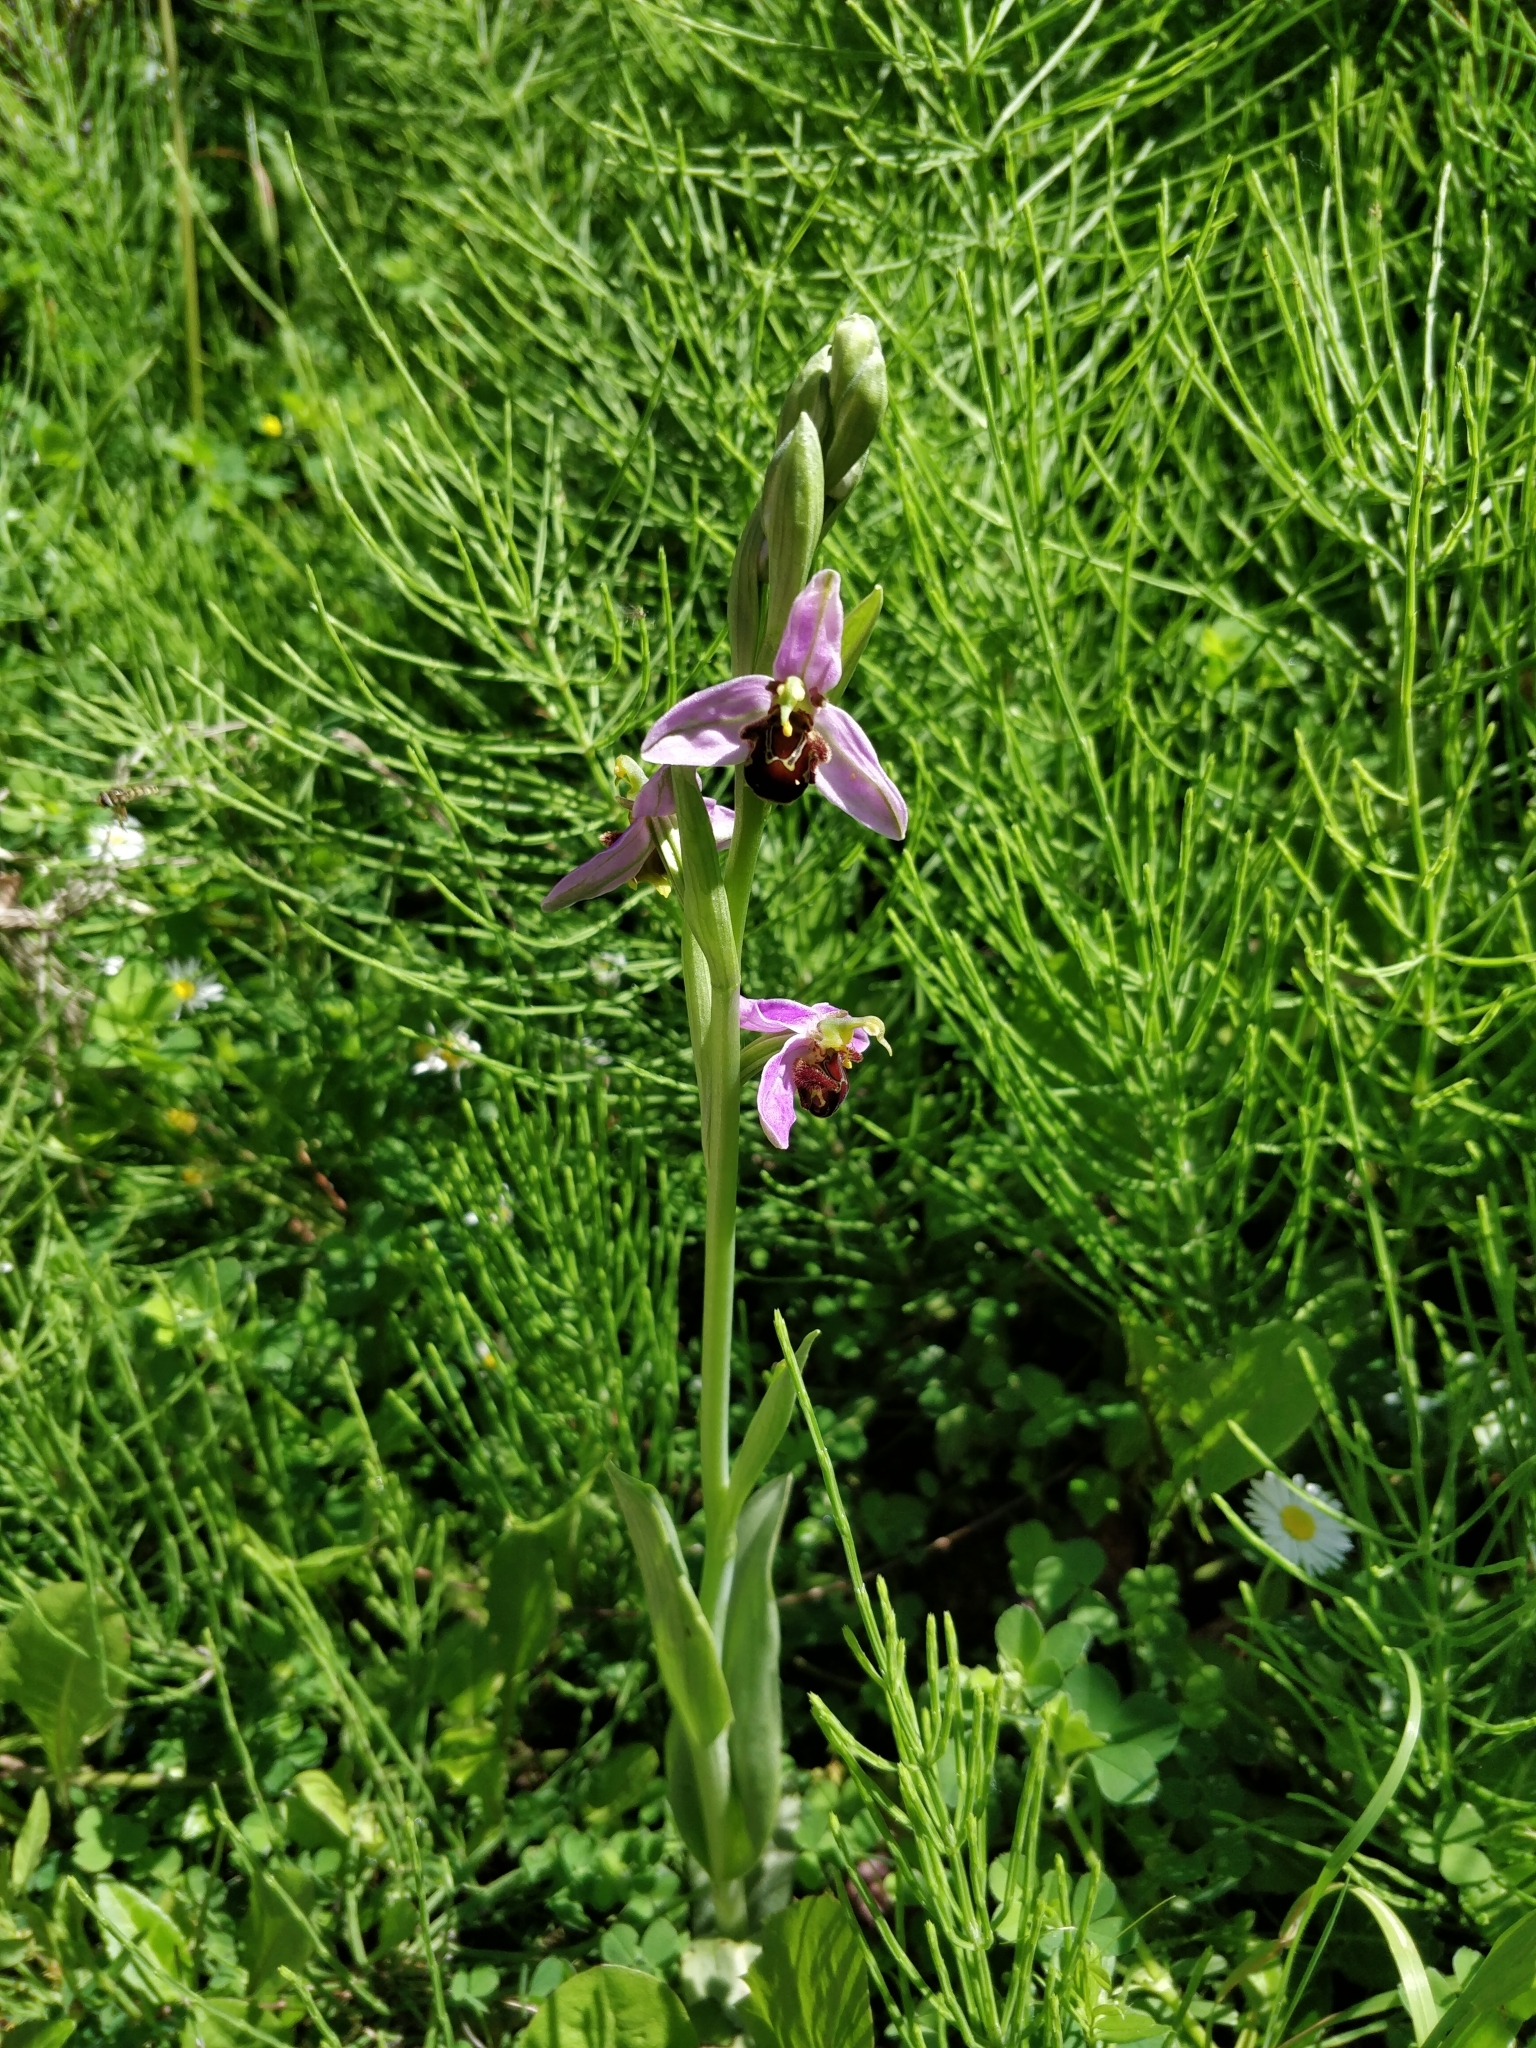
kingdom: Plantae
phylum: Tracheophyta
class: Liliopsida
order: Asparagales
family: Orchidaceae
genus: Ophrys
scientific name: Ophrys apifera
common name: Bee orchid
